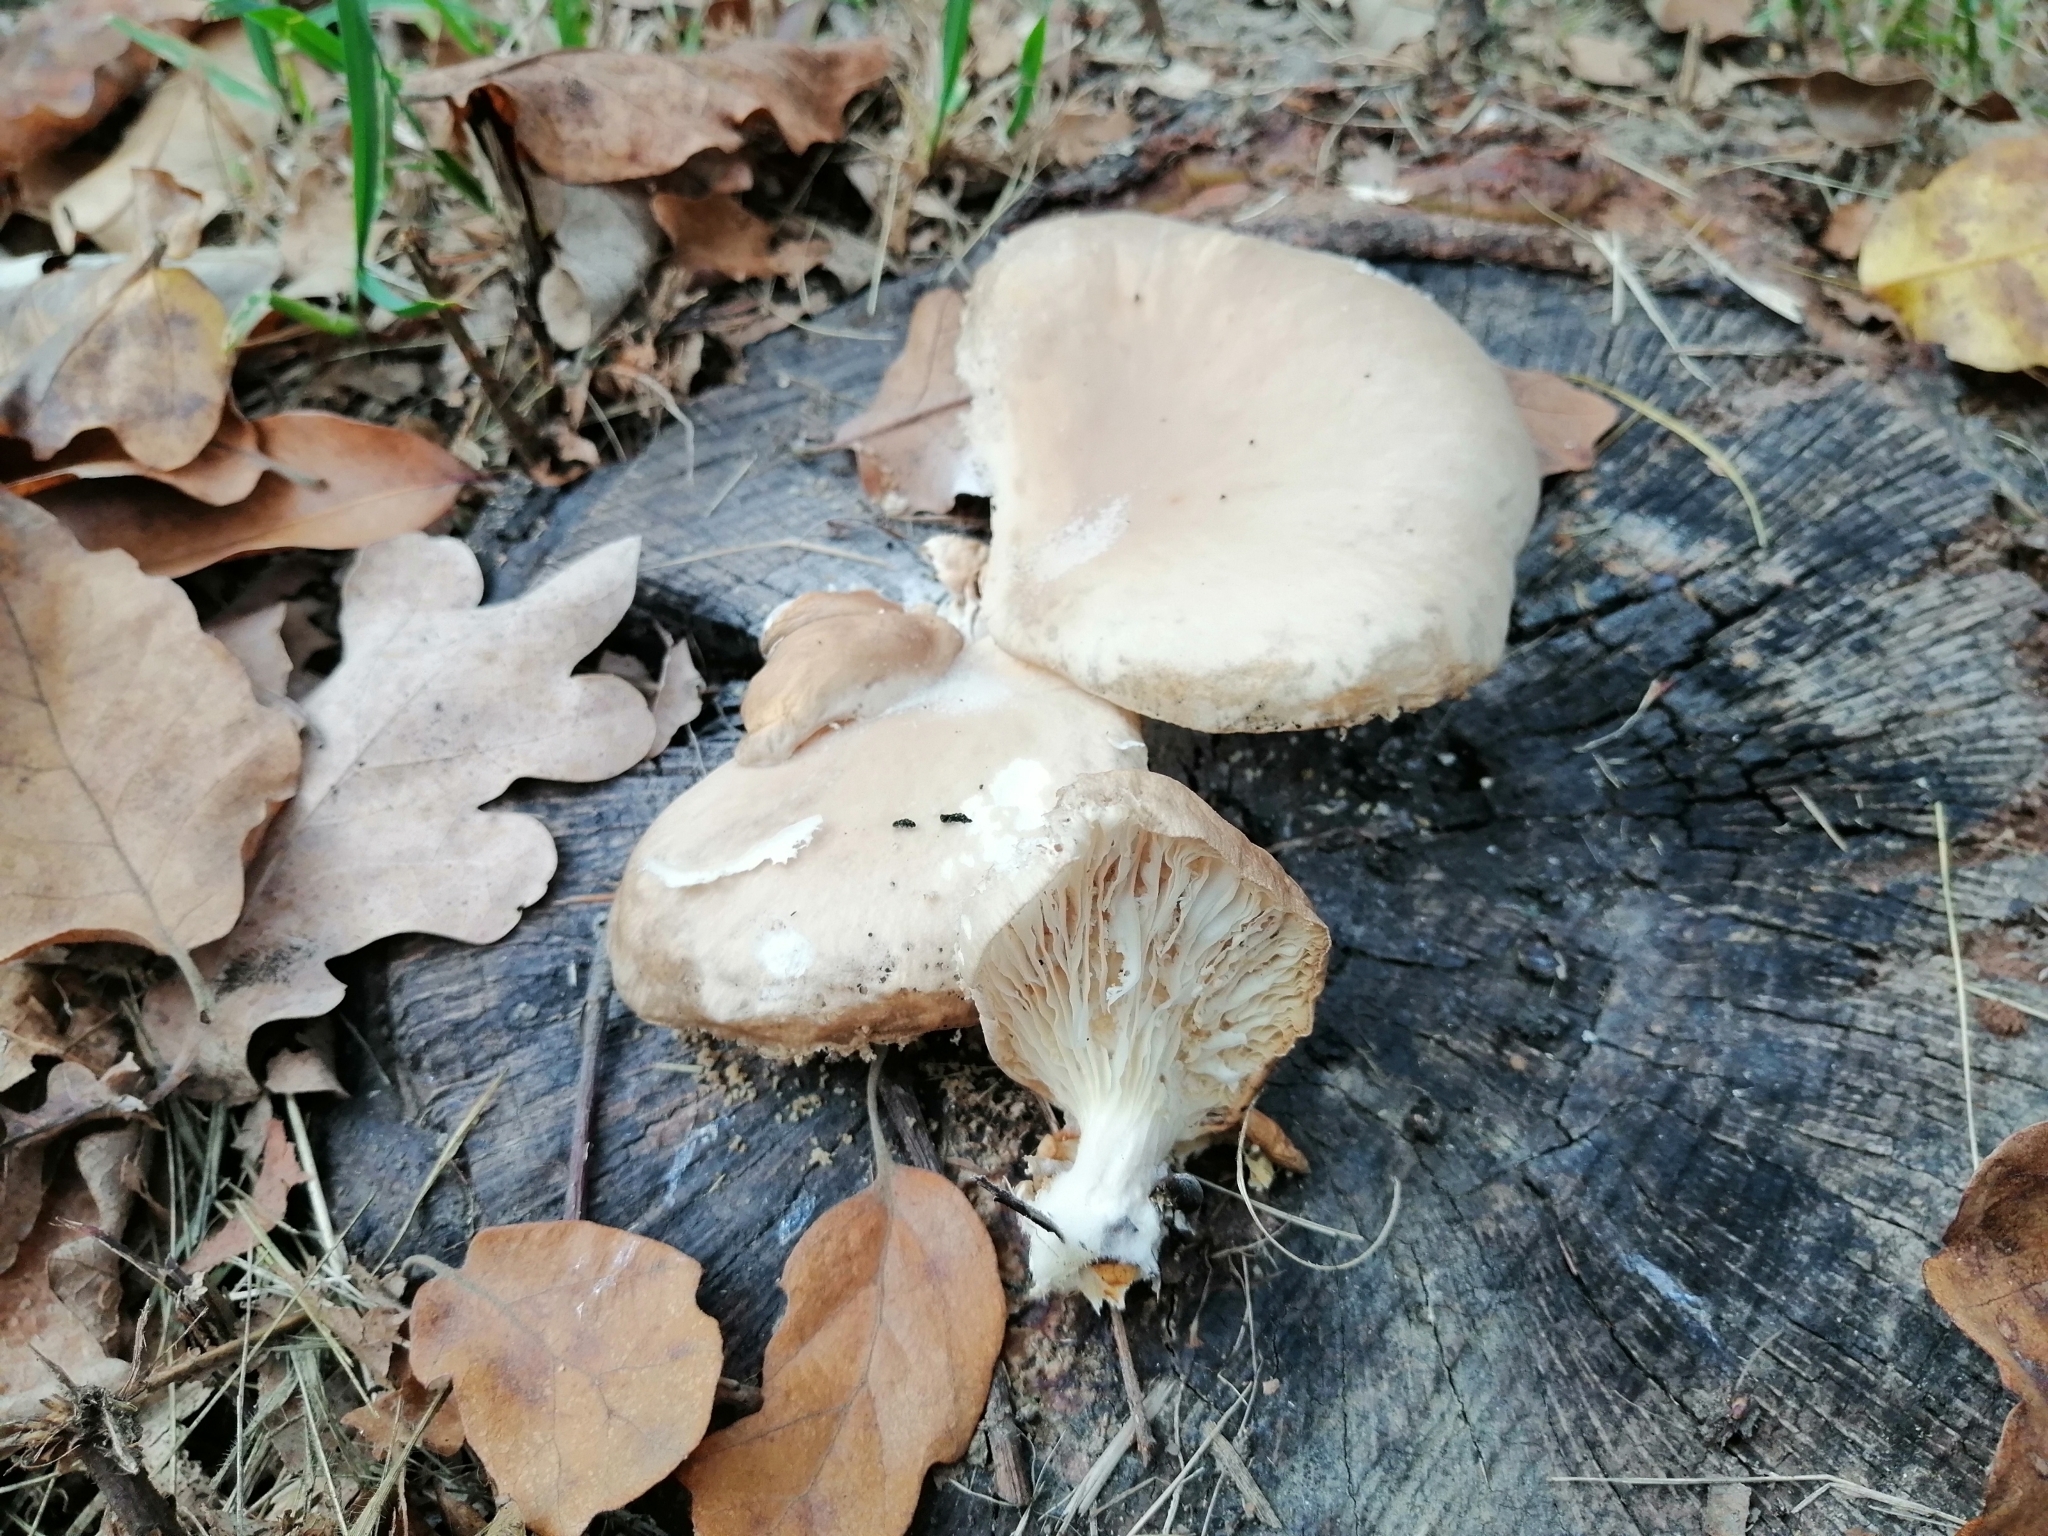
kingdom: Fungi
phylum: Basidiomycota
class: Agaricomycetes
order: Agaricales
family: Pleurotaceae
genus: Pleurotus
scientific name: Pleurotus ostreatus
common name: Oyster mushroom
